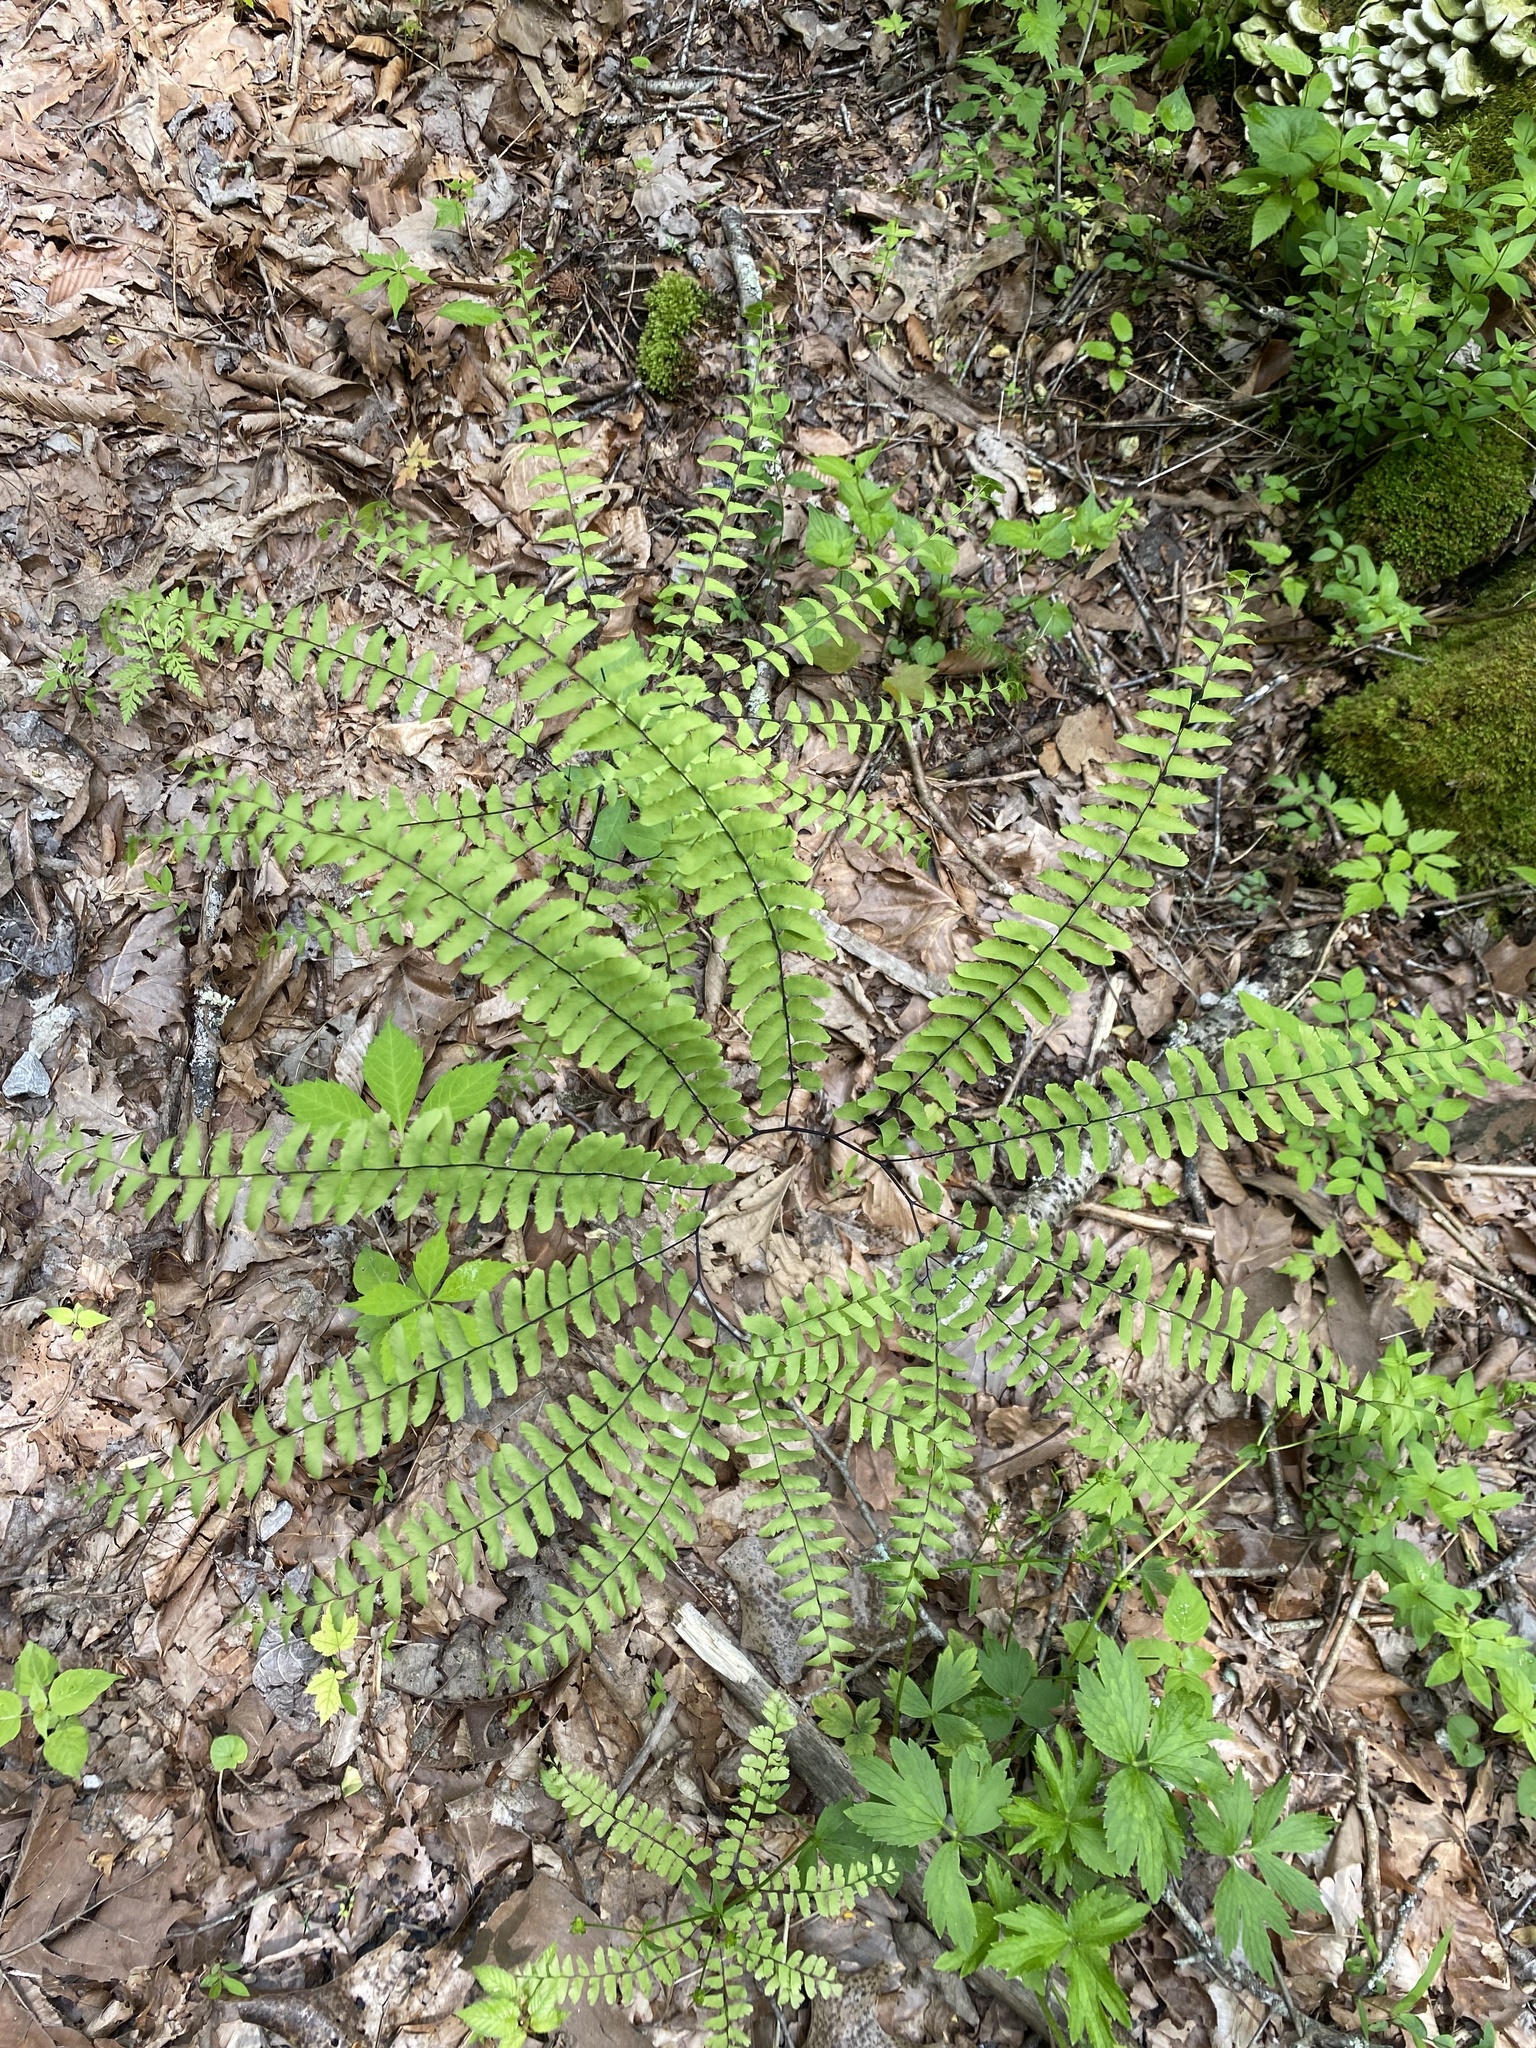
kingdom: Plantae
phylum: Tracheophyta
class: Polypodiopsida
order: Polypodiales
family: Pteridaceae
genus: Adiantum
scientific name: Adiantum pedatum
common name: Five-finger fern
